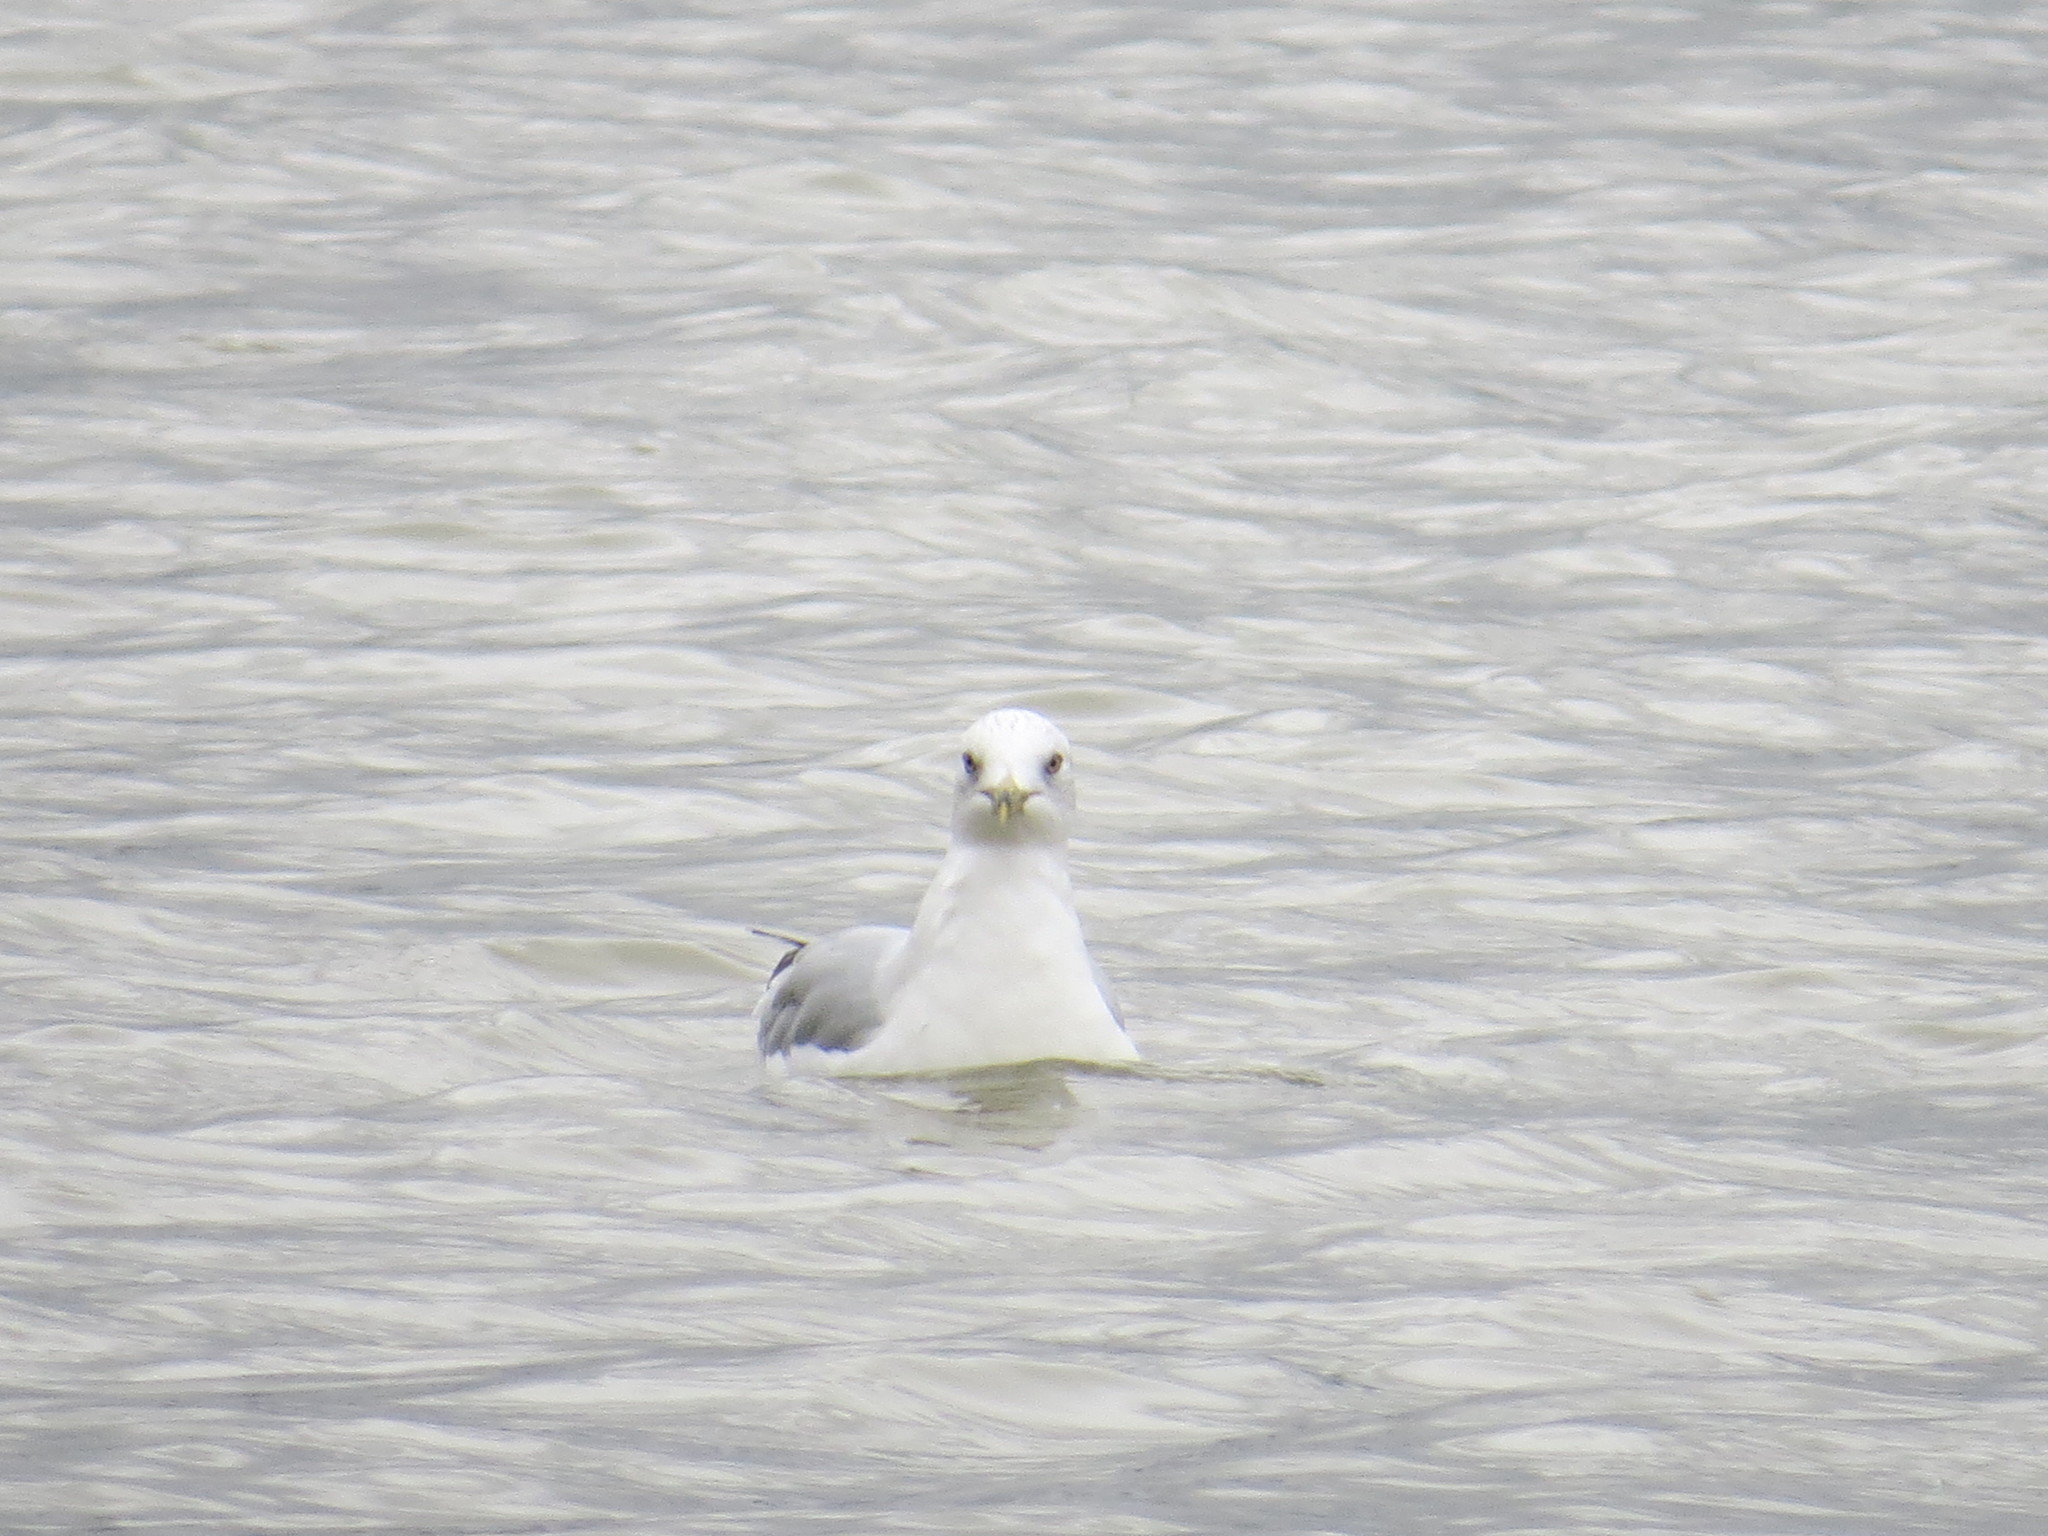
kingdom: Animalia
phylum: Chordata
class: Aves
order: Charadriiformes
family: Laridae
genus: Larus
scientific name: Larus delawarensis
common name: Ring-billed gull
